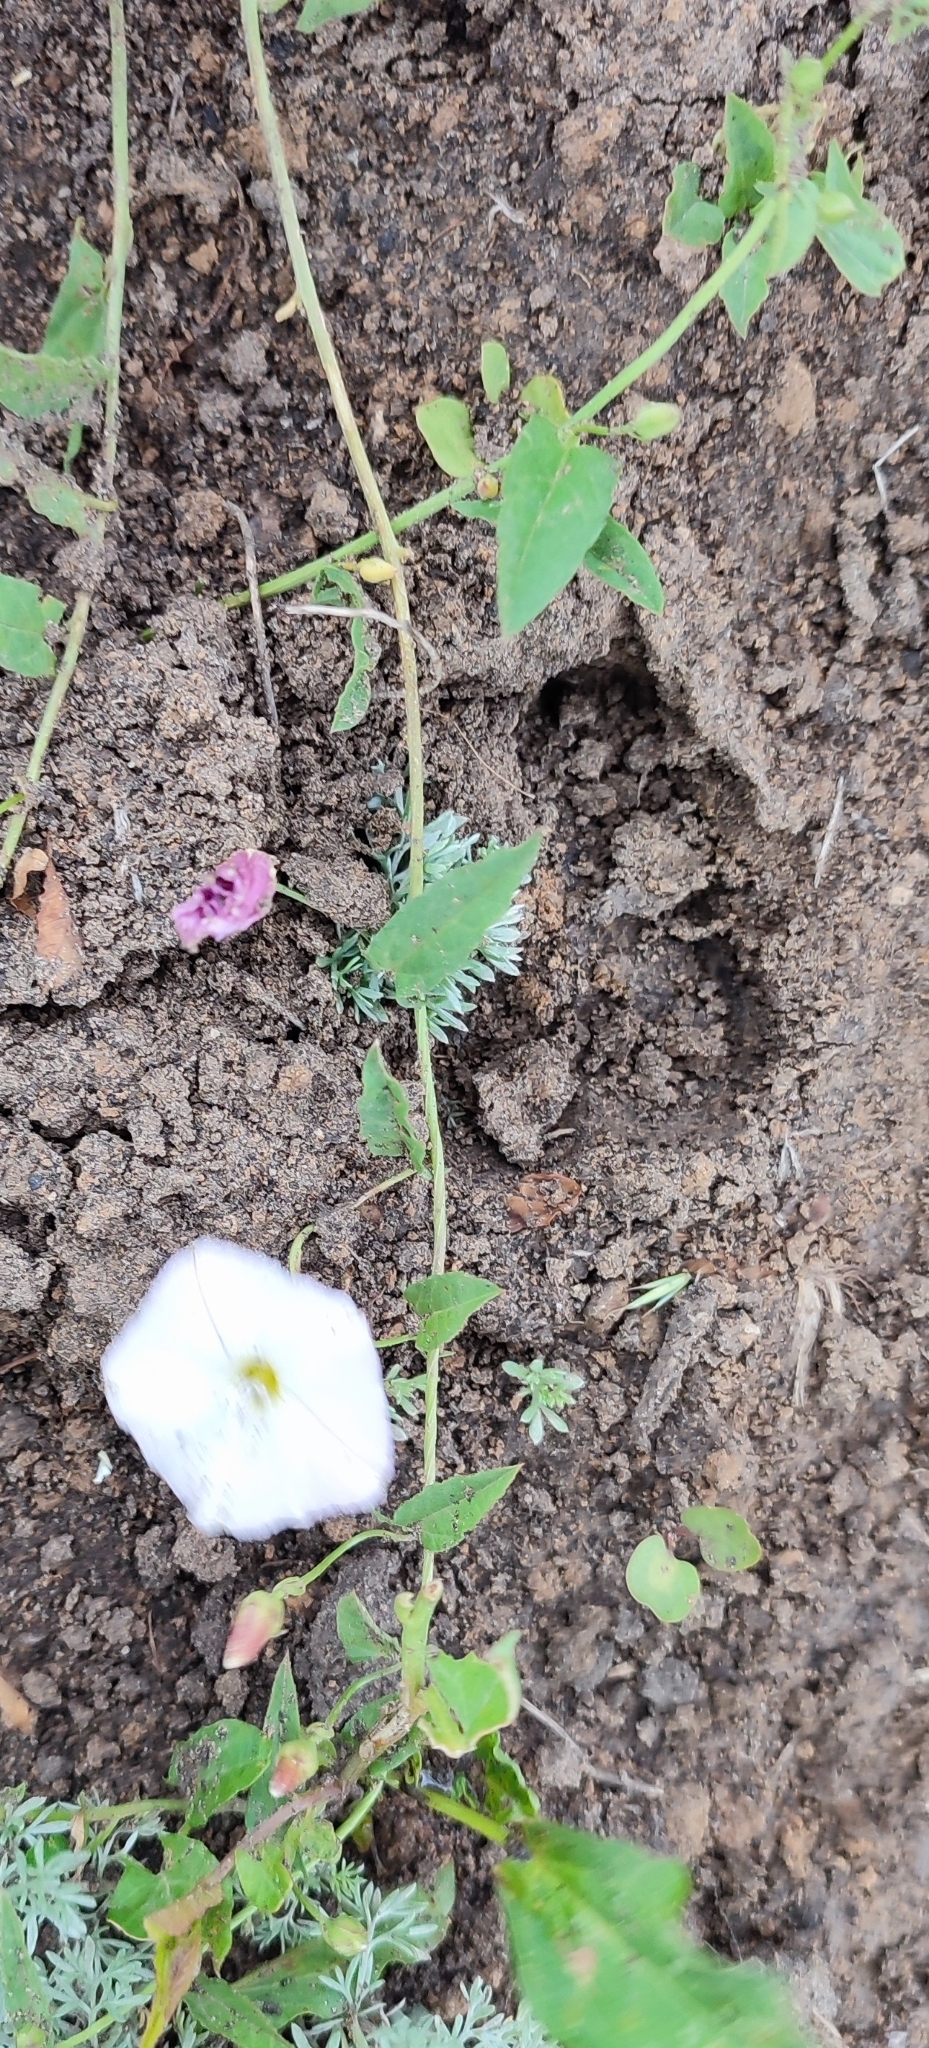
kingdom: Plantae
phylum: Tracheophyta
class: Magnoliopsida
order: Solanales
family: Convolvulaceae
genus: Convolvulus
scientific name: Convolvulus arvensis
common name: Field bindweed
